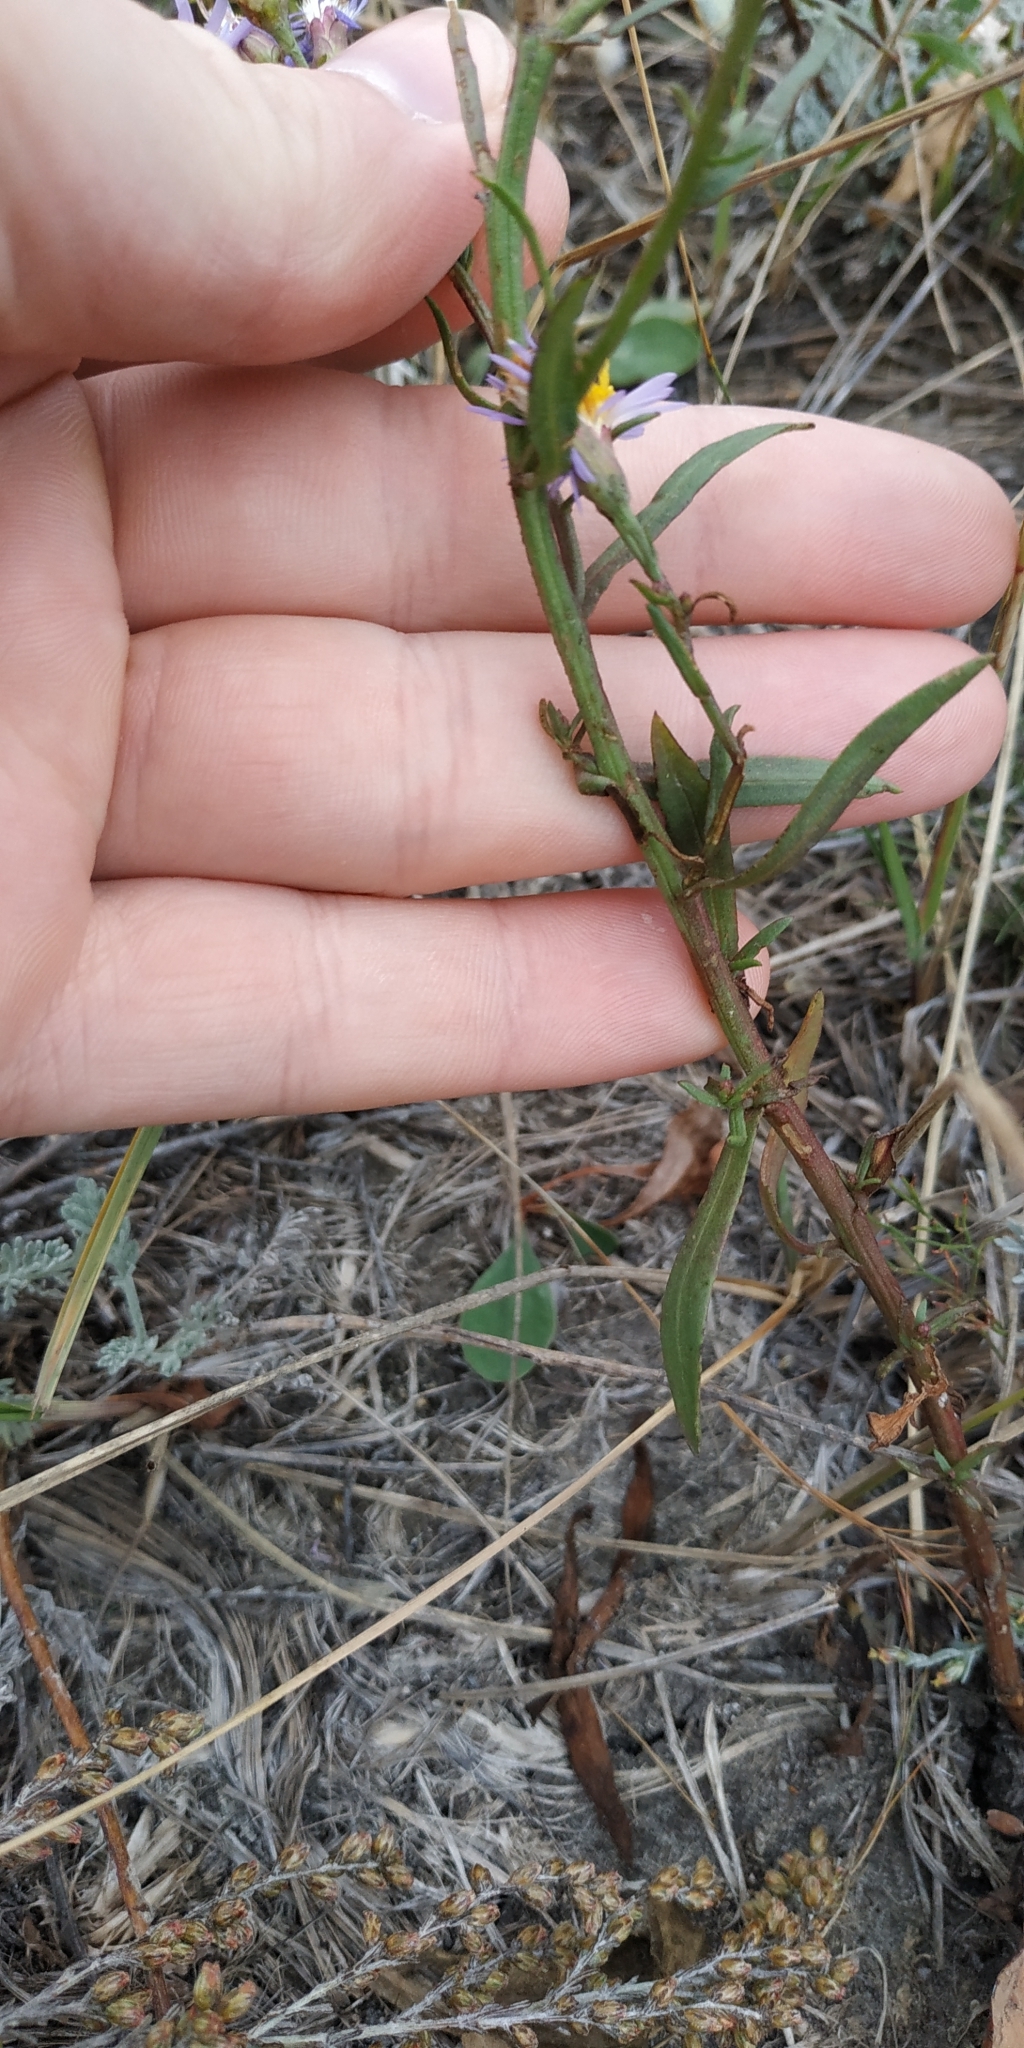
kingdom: Plantae
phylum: Tracheophyta
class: Magnoliopsida
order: Asterales
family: Asteraceae
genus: Tripolium
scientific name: Tripolium pannonicum
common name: Sea aster
